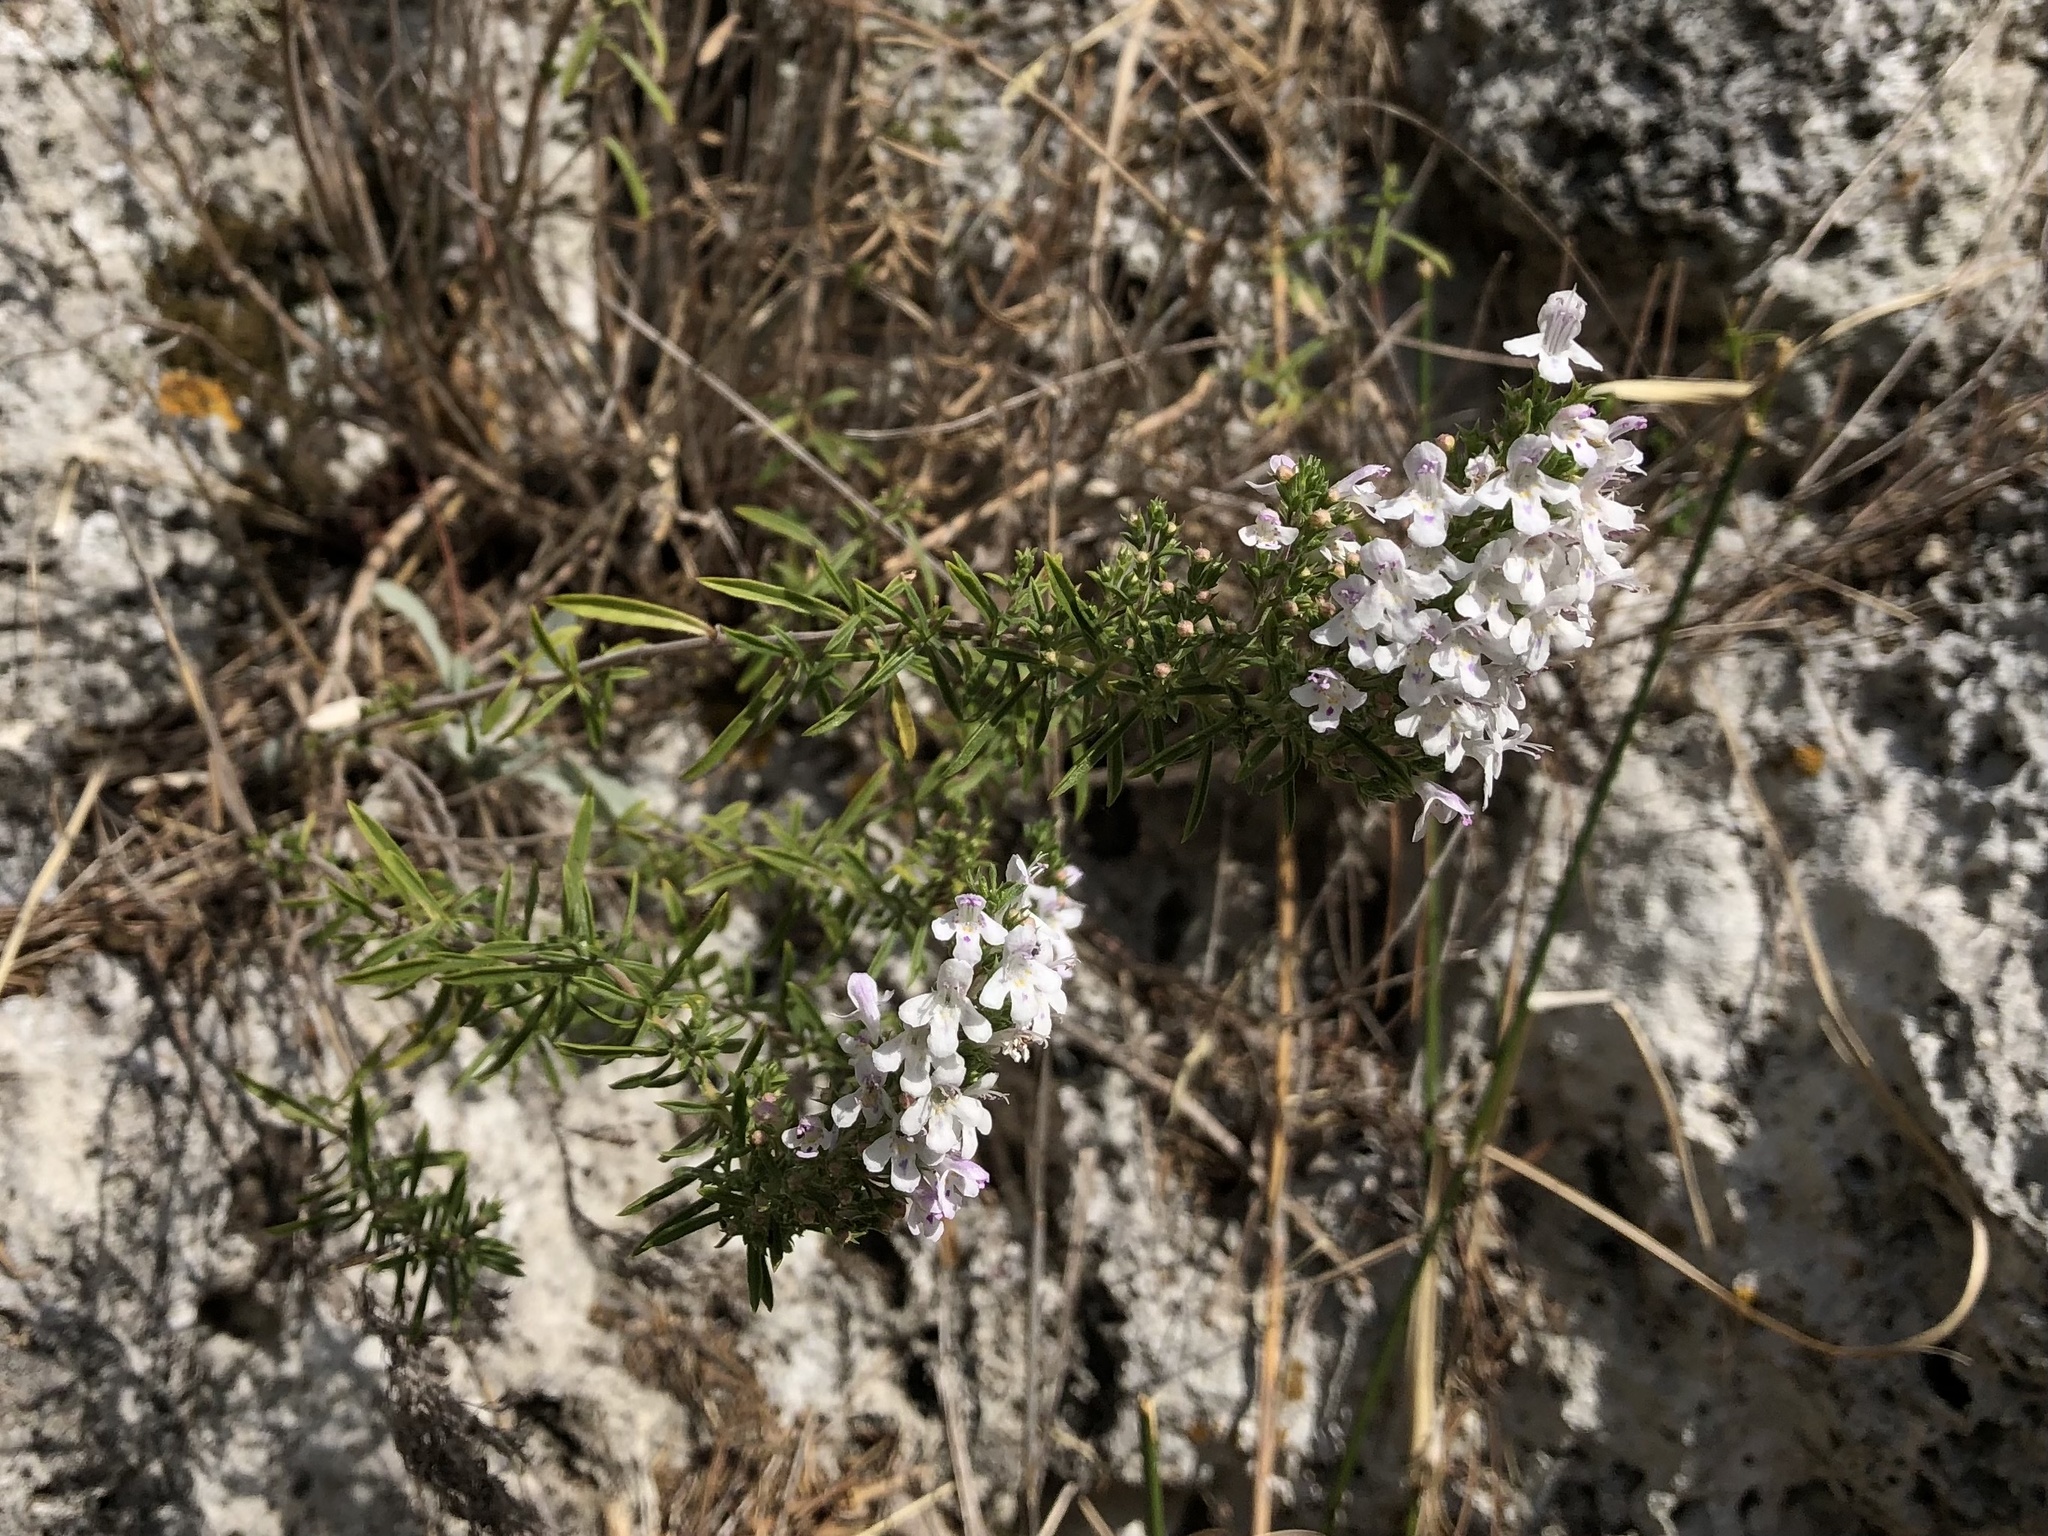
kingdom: Plantae
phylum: Tracheophyta
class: Magnoliopsida
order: Lamiales
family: Lamiaceae
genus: Satureja
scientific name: Satureja montana
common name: Winter savory
